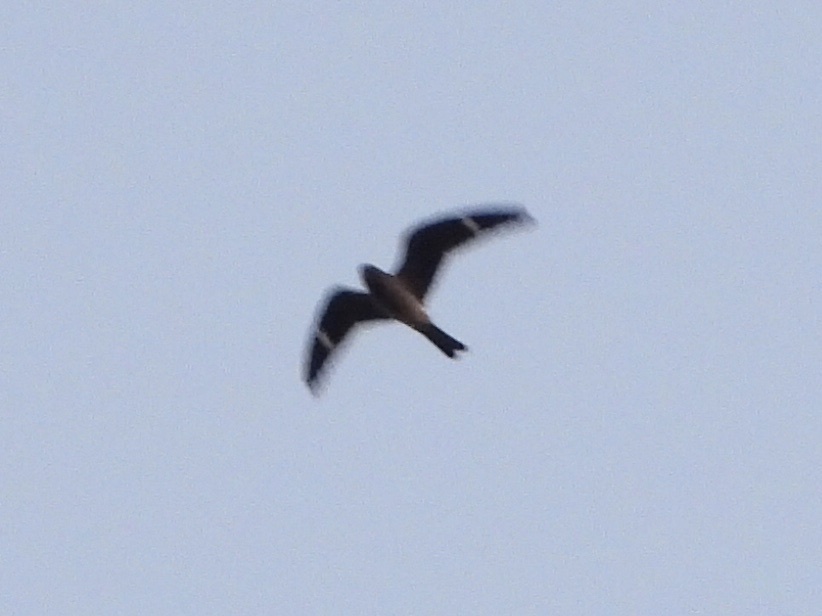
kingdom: Animalia
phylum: Chordata
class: Aves
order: Caprimulgiformes
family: Caprimulgidae
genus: Chordeiles
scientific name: Chordeiles minor
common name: Common nighthawk
